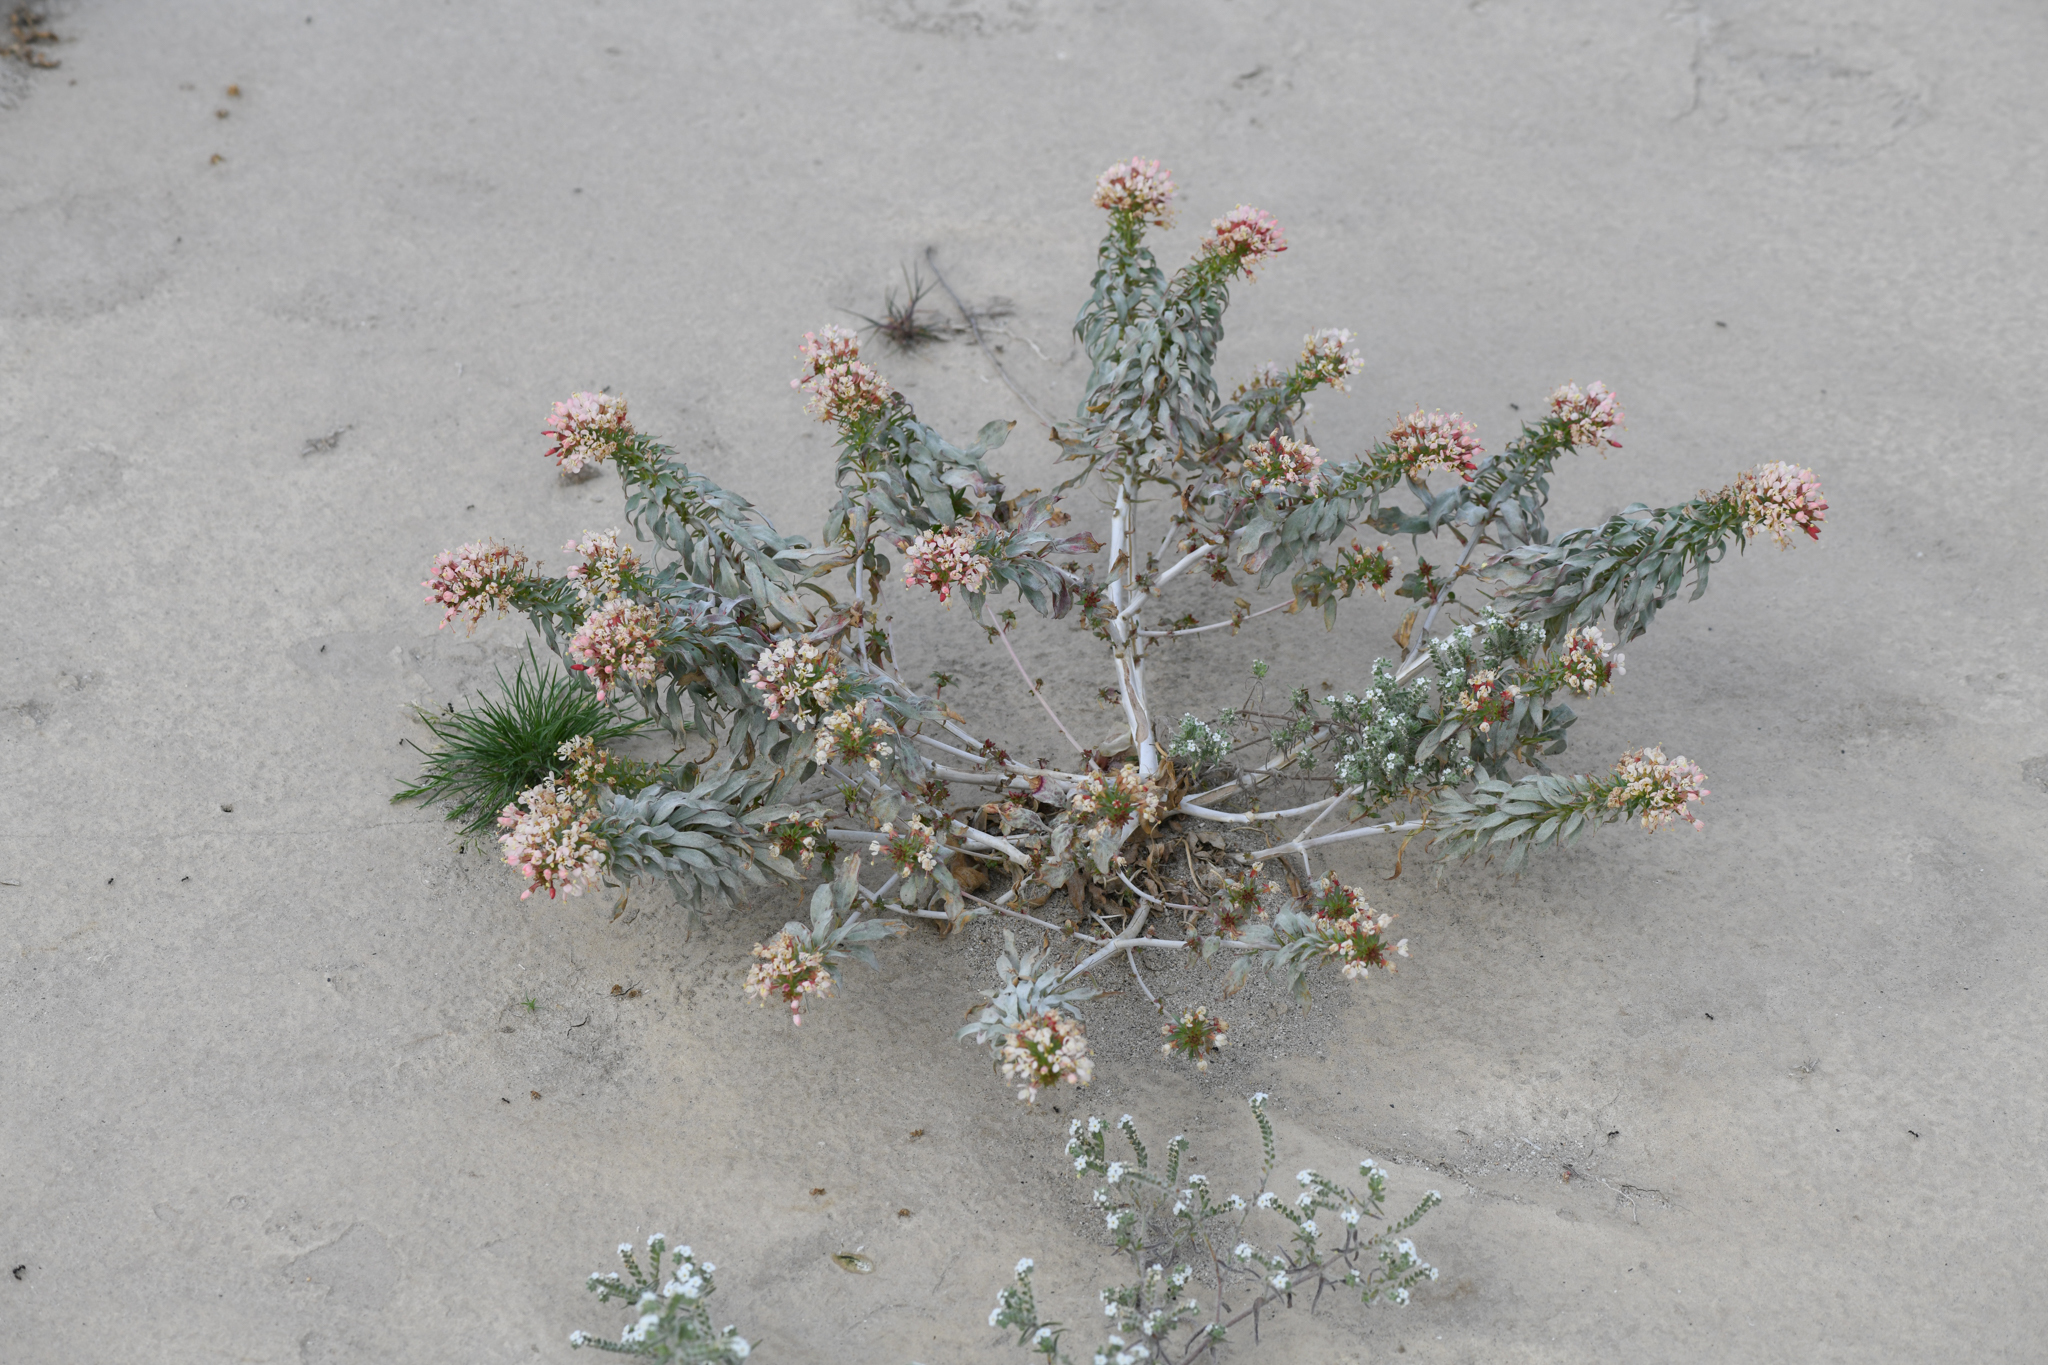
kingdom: Plantae
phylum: Tracheophyta
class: Magnoliopsida
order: Myrtales
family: Onagraceae
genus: Eremothera
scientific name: Eremothera boothii
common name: Booth's evening primrose
